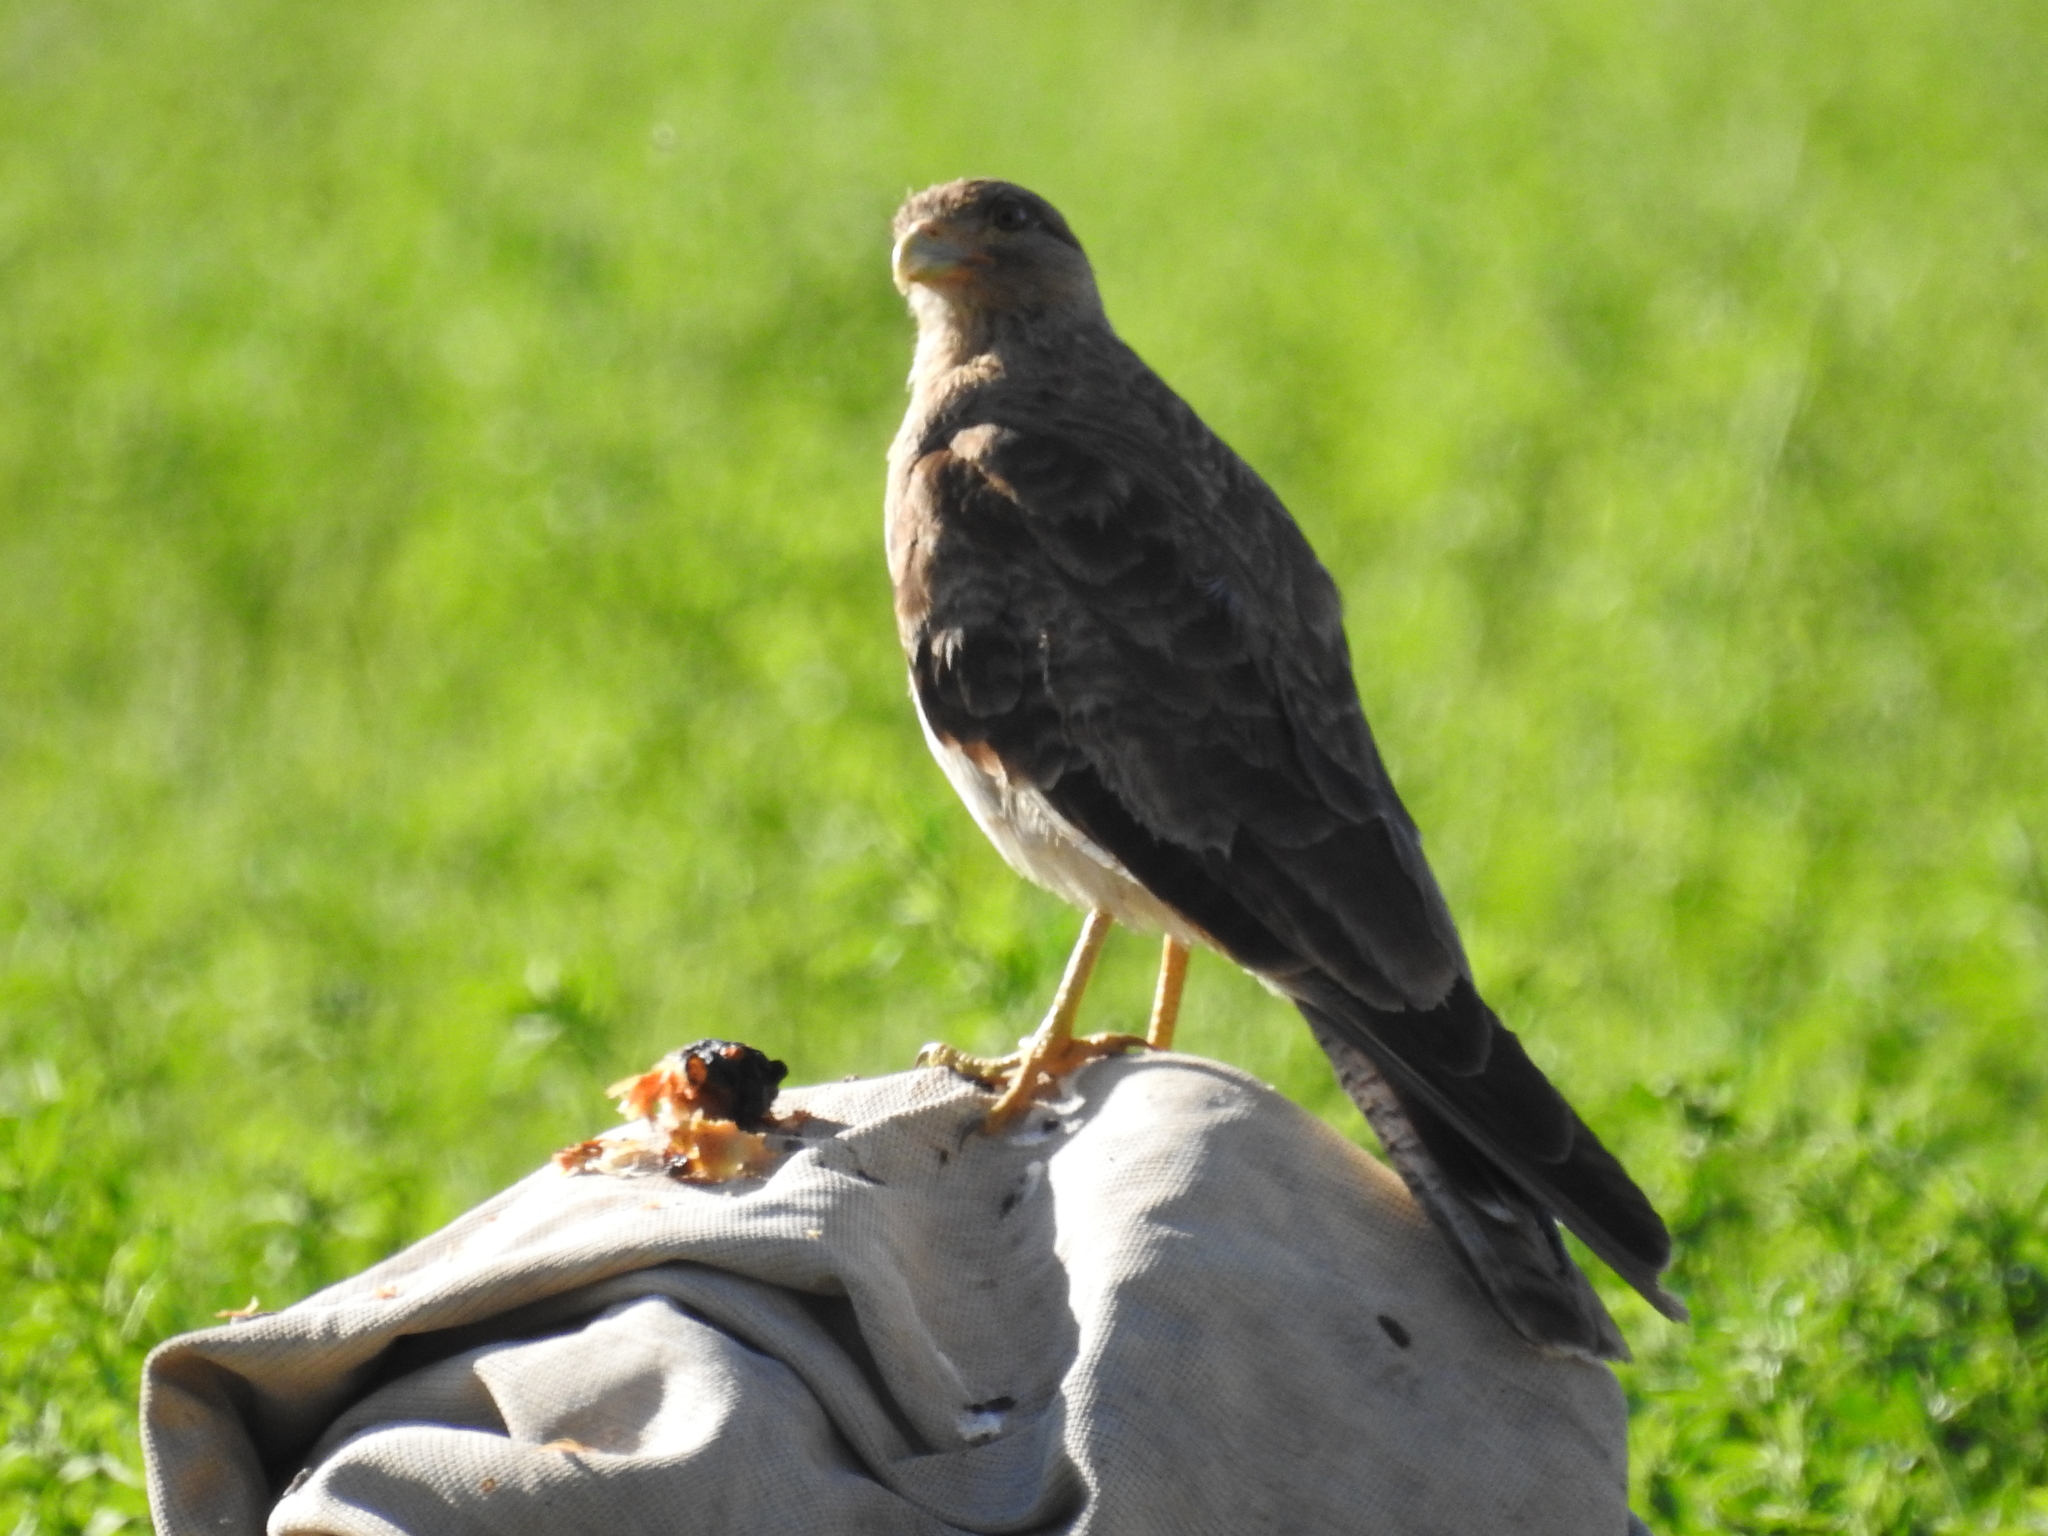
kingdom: Animalia
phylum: Chordata
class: Aves
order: Falconiformes
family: Falconidae
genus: Daptrius
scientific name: Daptrius
